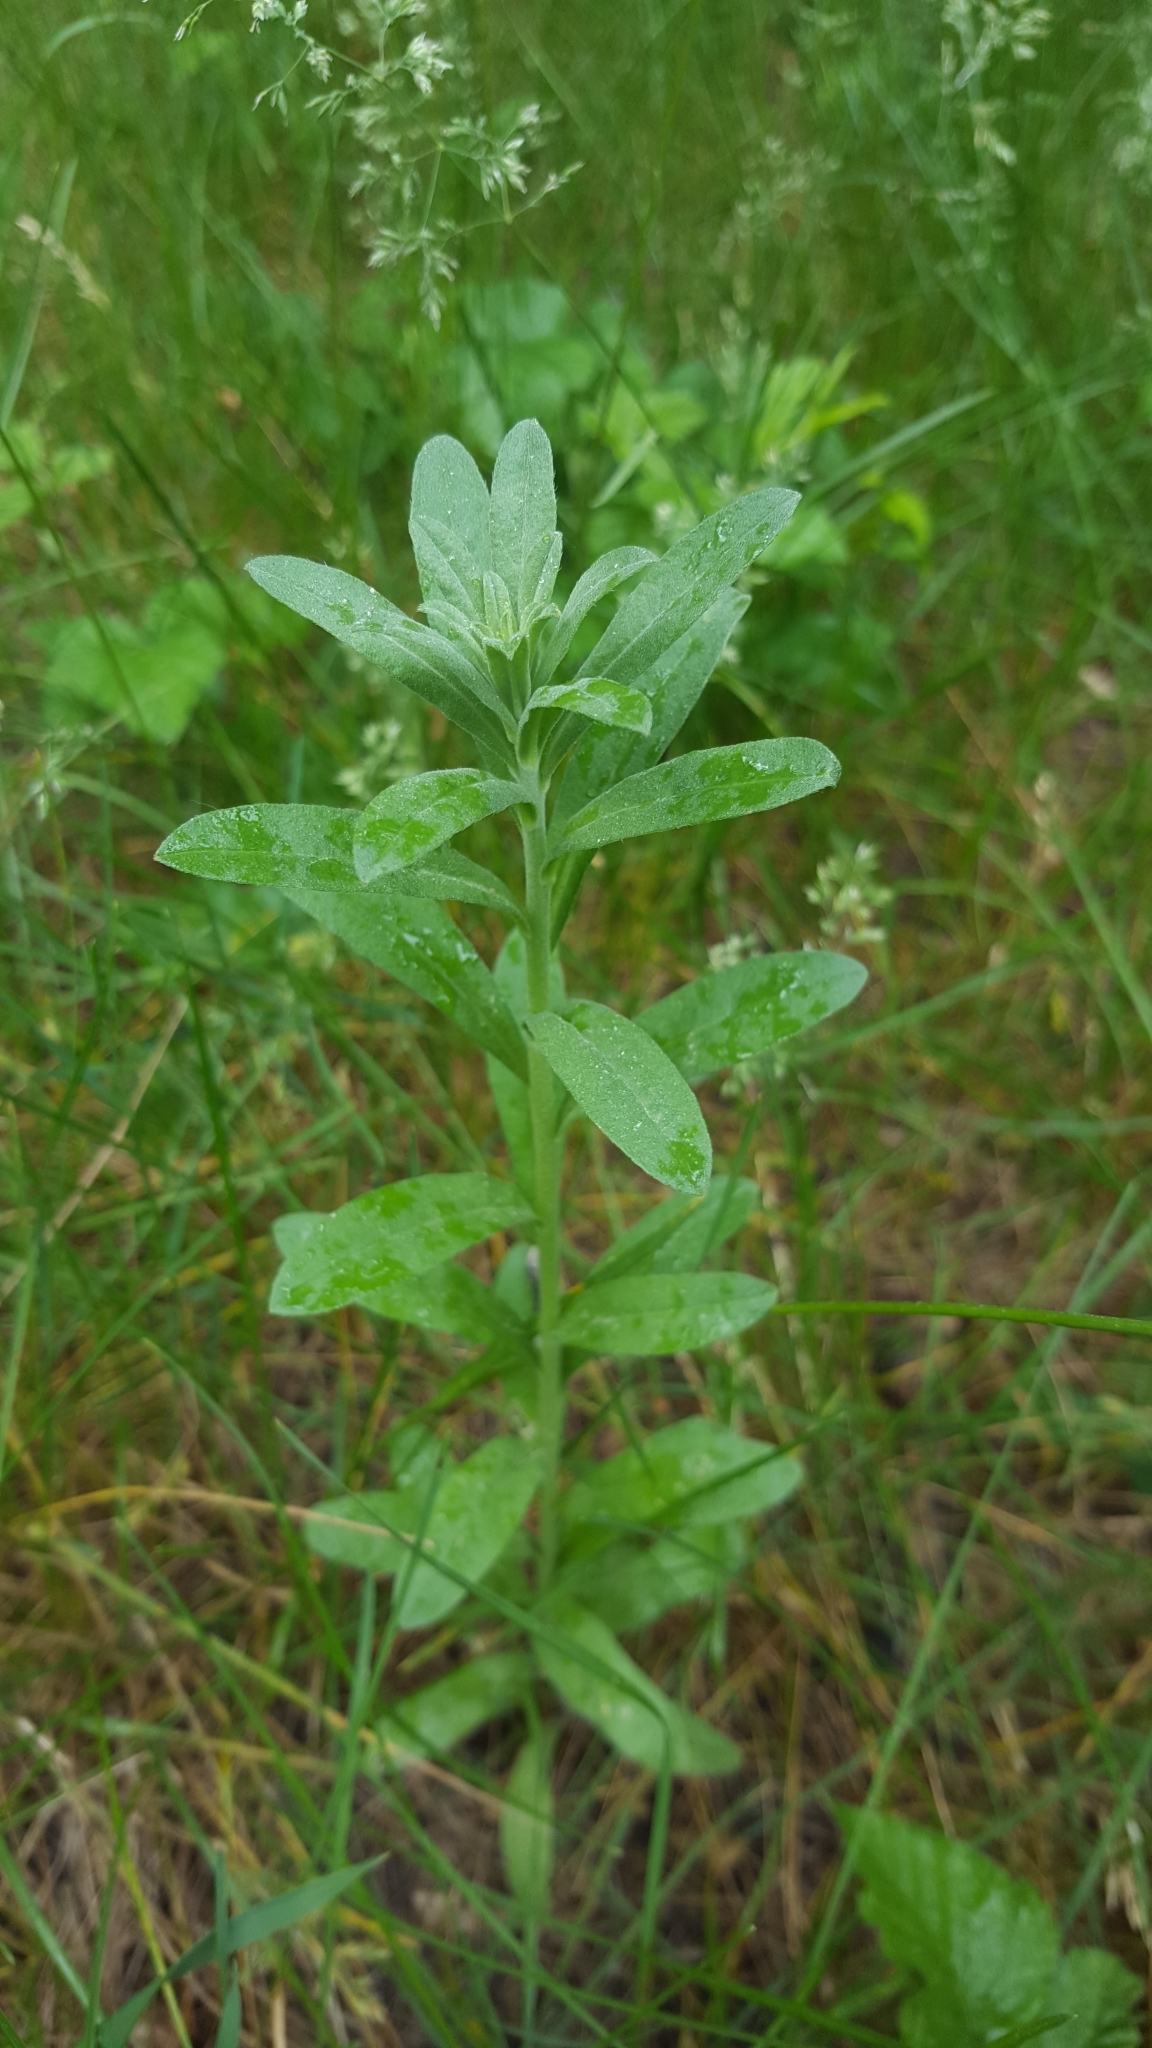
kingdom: Plantae
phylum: Tracheophyta
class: Magnoliopsida
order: Brassicales
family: Brassicaceae
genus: Berteroa
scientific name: Berteroa incana
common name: Hoary alison
